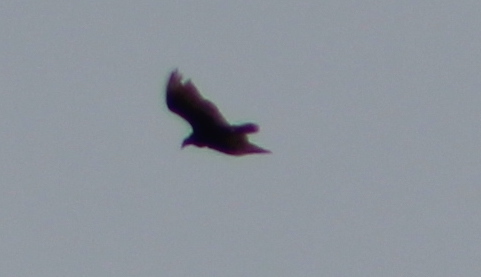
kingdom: Animalia
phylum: Chordata
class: Aves
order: Accipitriformes
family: Cathartidae
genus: Cathartes
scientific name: Cathartes aura
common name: Turkey vulture
